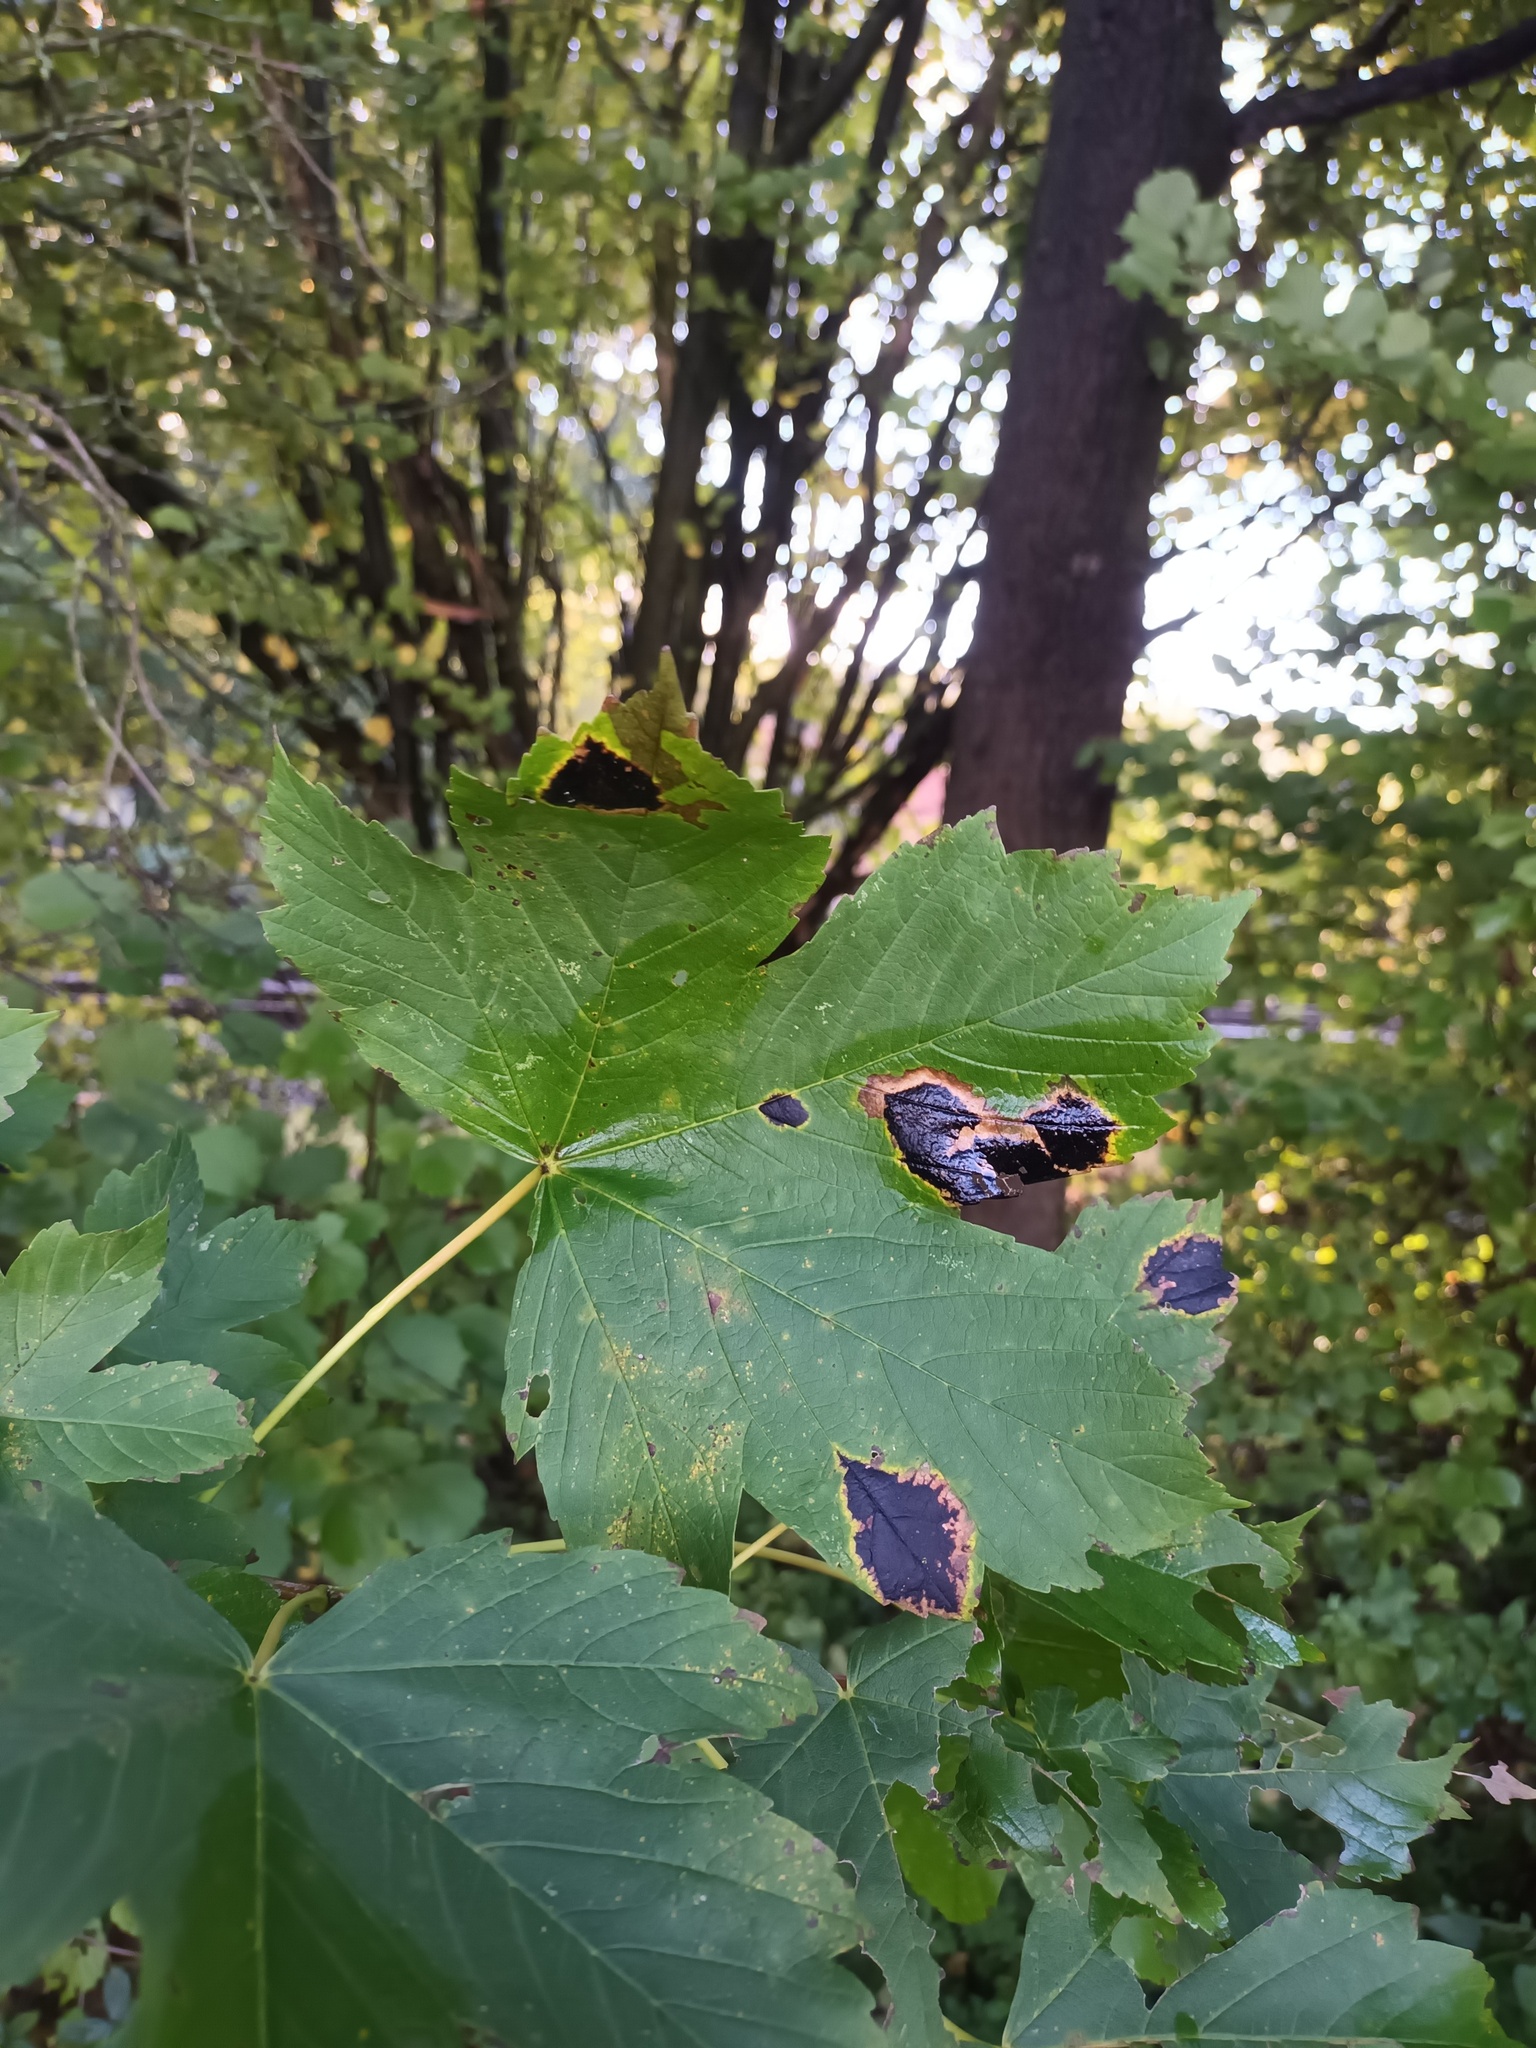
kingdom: Fungi
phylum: Ascomycota
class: Leotiomycetes
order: Rhytismatales
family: Rhytismataceae
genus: Rhytisma
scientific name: Rhytisma acerinum
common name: European tar spot
